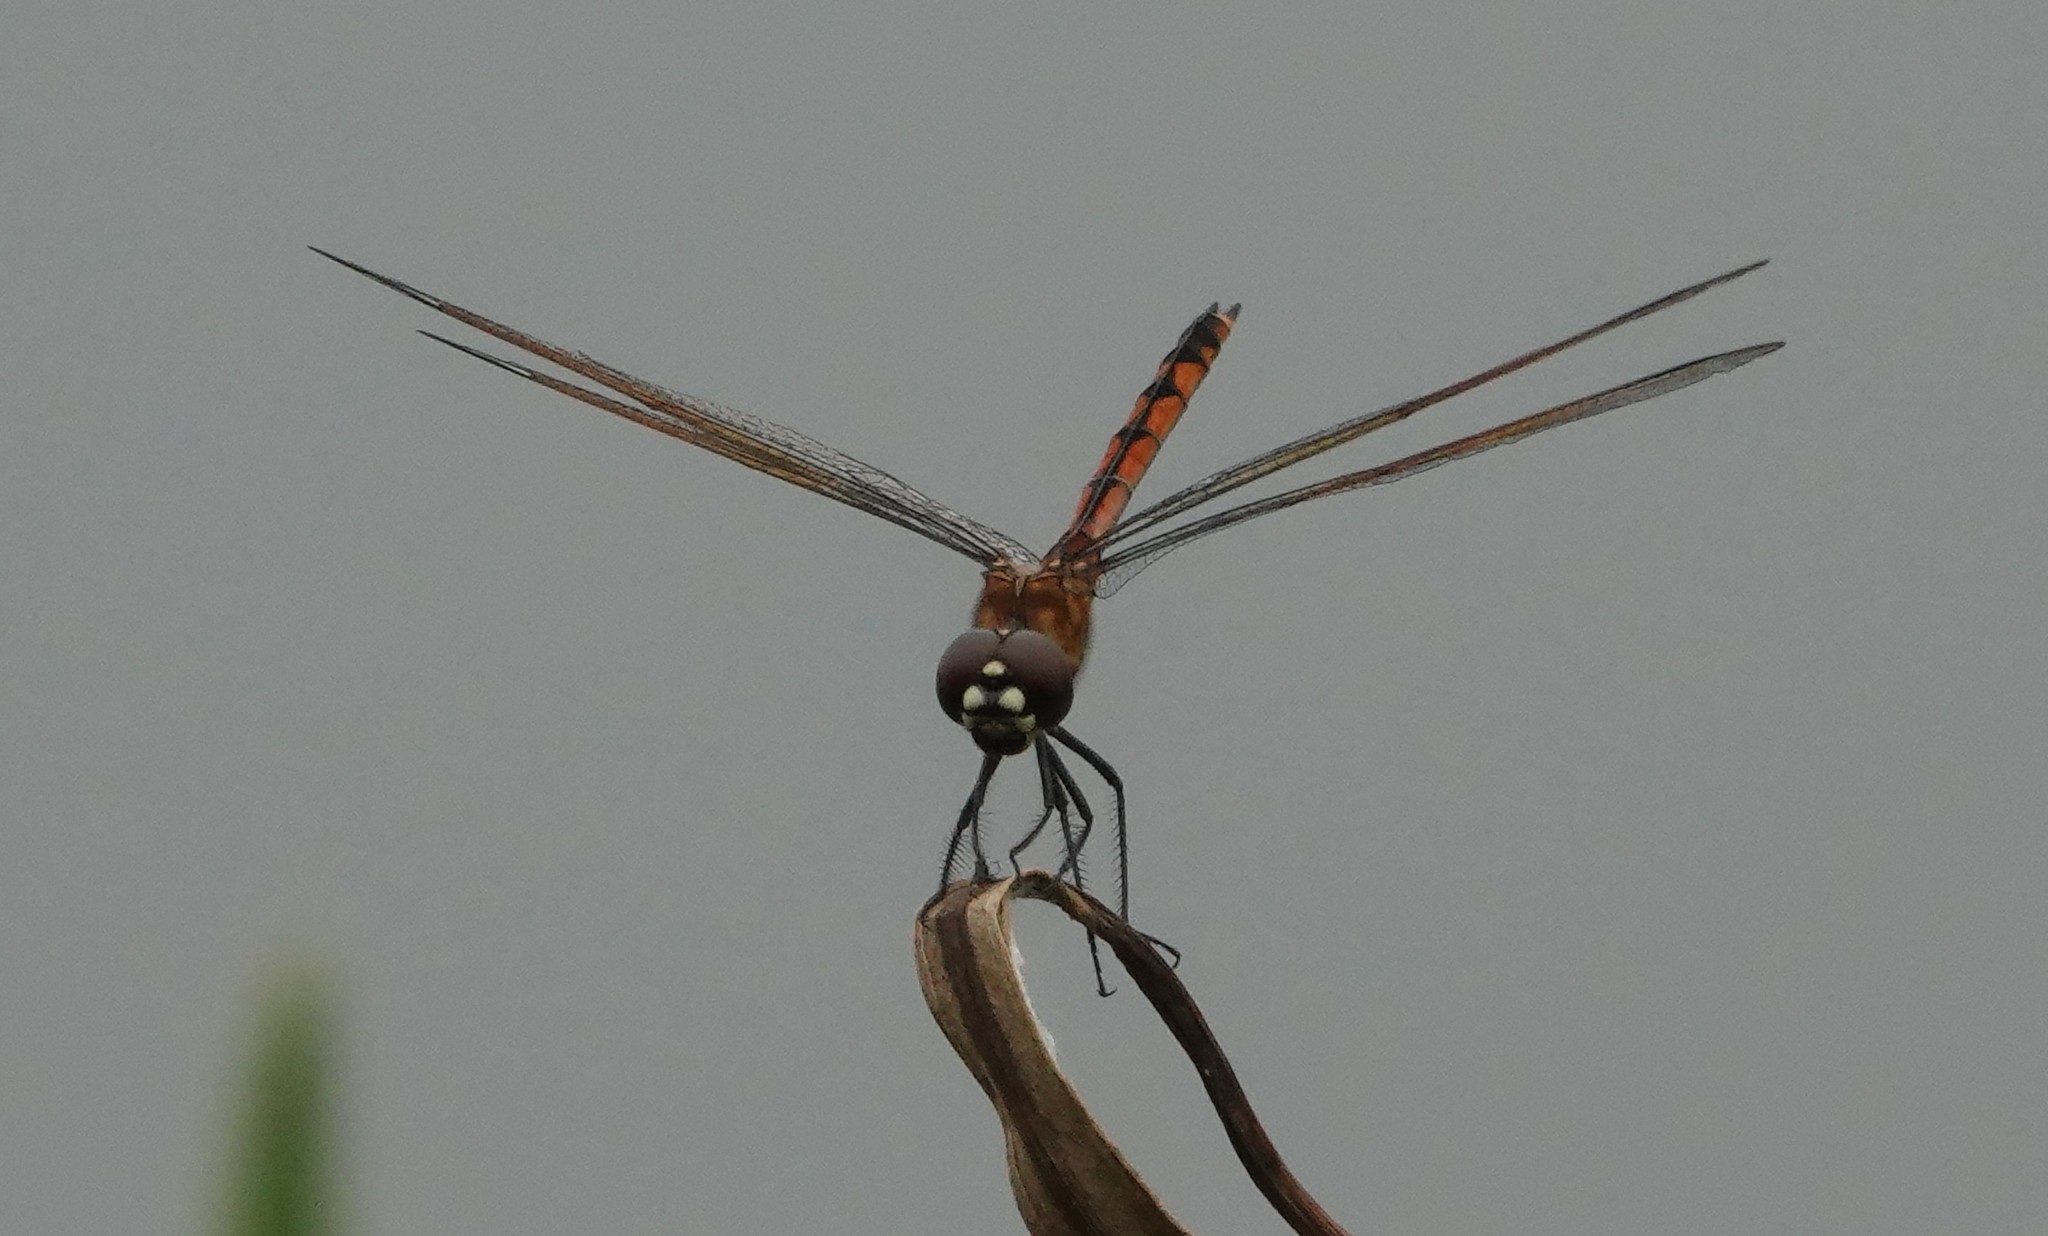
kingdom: Animalia
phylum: Arthropoda
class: Insecta
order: Odonata
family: Libellulidae
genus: Brachymesia
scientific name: Brachymesia gravida
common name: Four-spotted pennant
